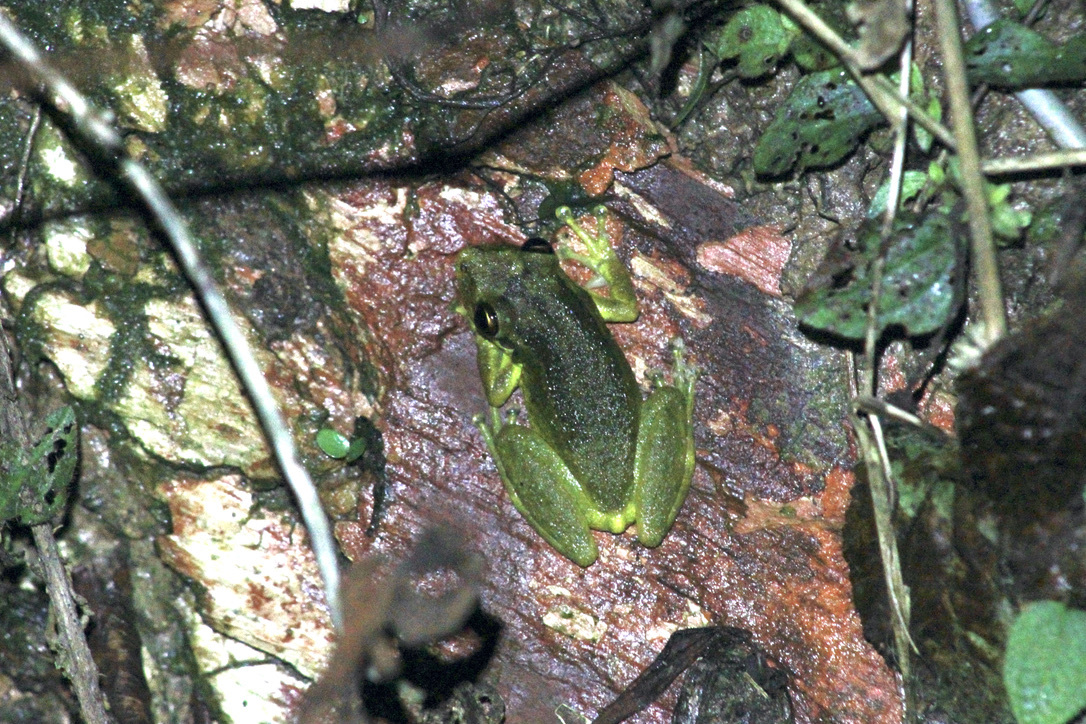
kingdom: Animalia
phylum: Chordata
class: Amphibia
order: Anura
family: Hylidae
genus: Scinax
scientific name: Scinax ruber
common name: Red snouted treefrog
